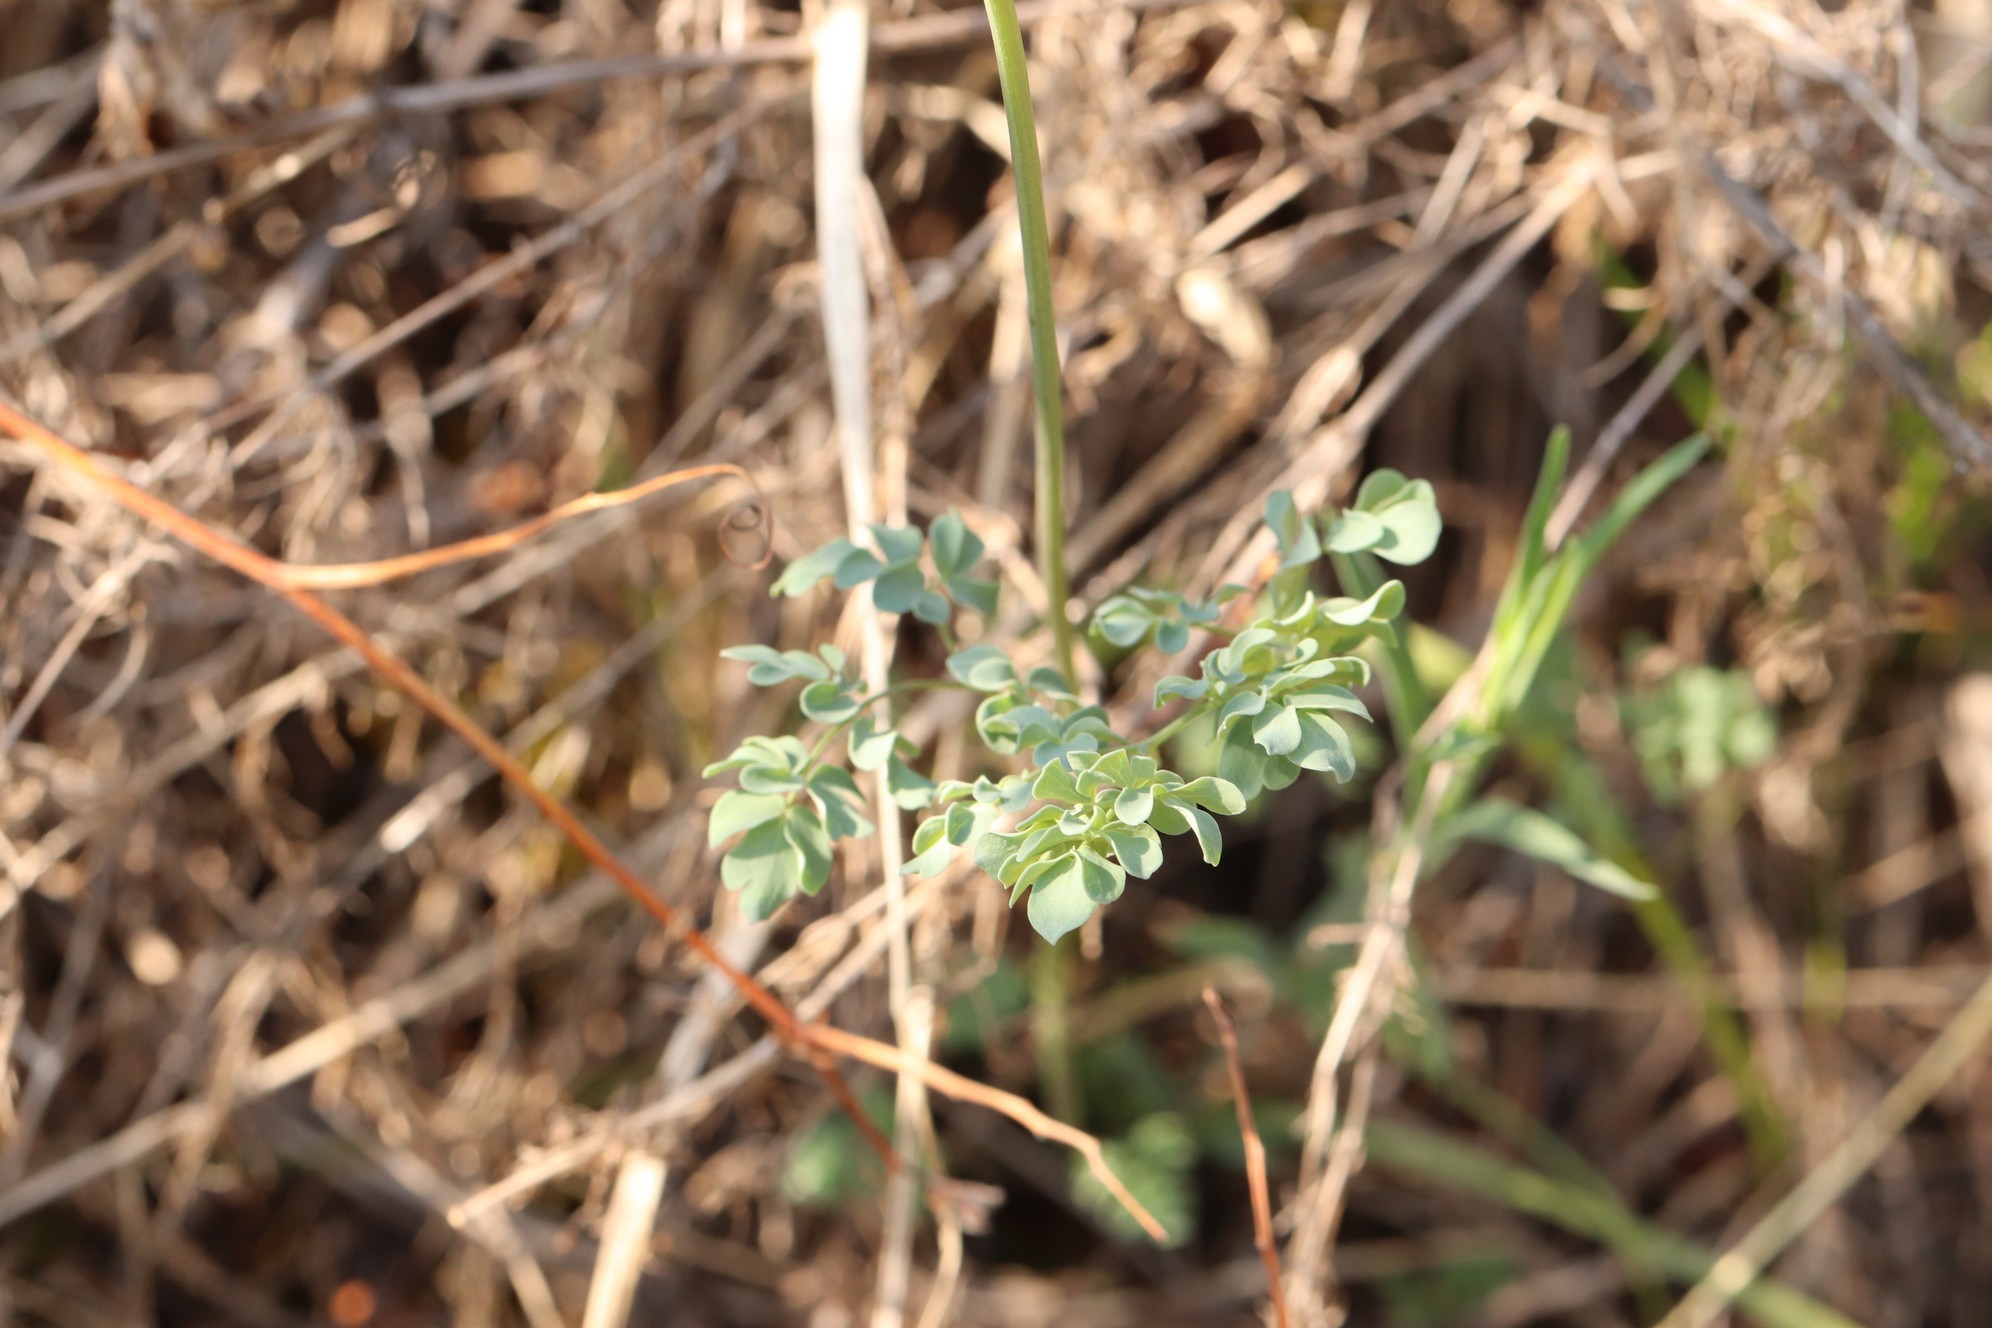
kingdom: Plantae
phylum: Tracheophyta
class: Magnoliopsida
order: Ranunculales
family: Ranunculaceae
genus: Thalictrum
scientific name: Thalictrum petaloideum
